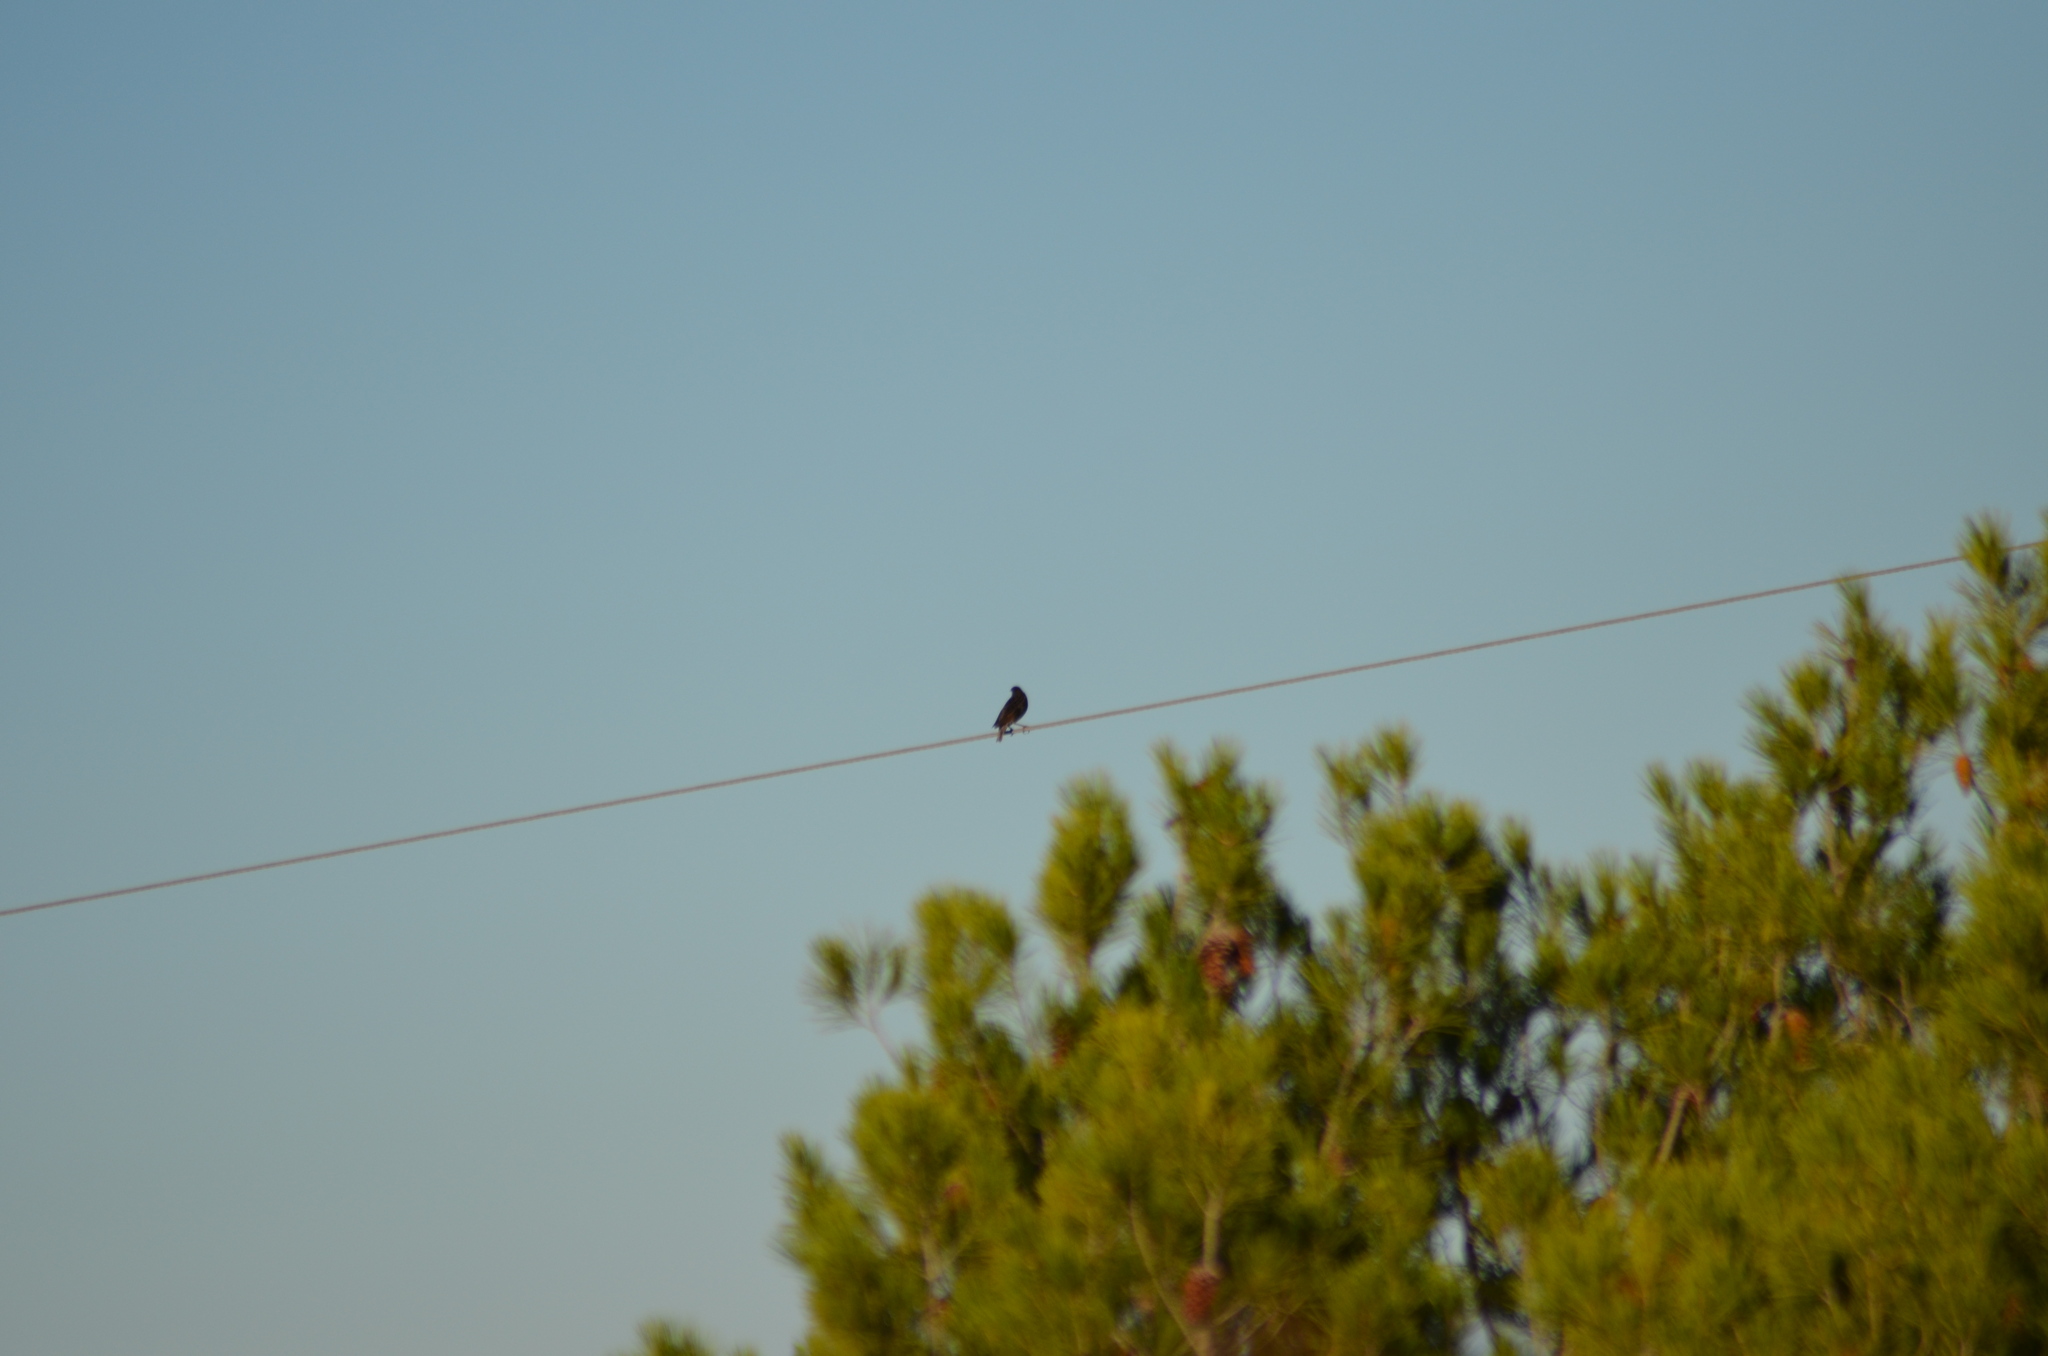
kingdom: Animalia
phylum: Chordata
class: Aves
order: Passeriformes
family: Sturnidae
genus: Sturnus
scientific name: Sturnus vulgaris
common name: Common starling
